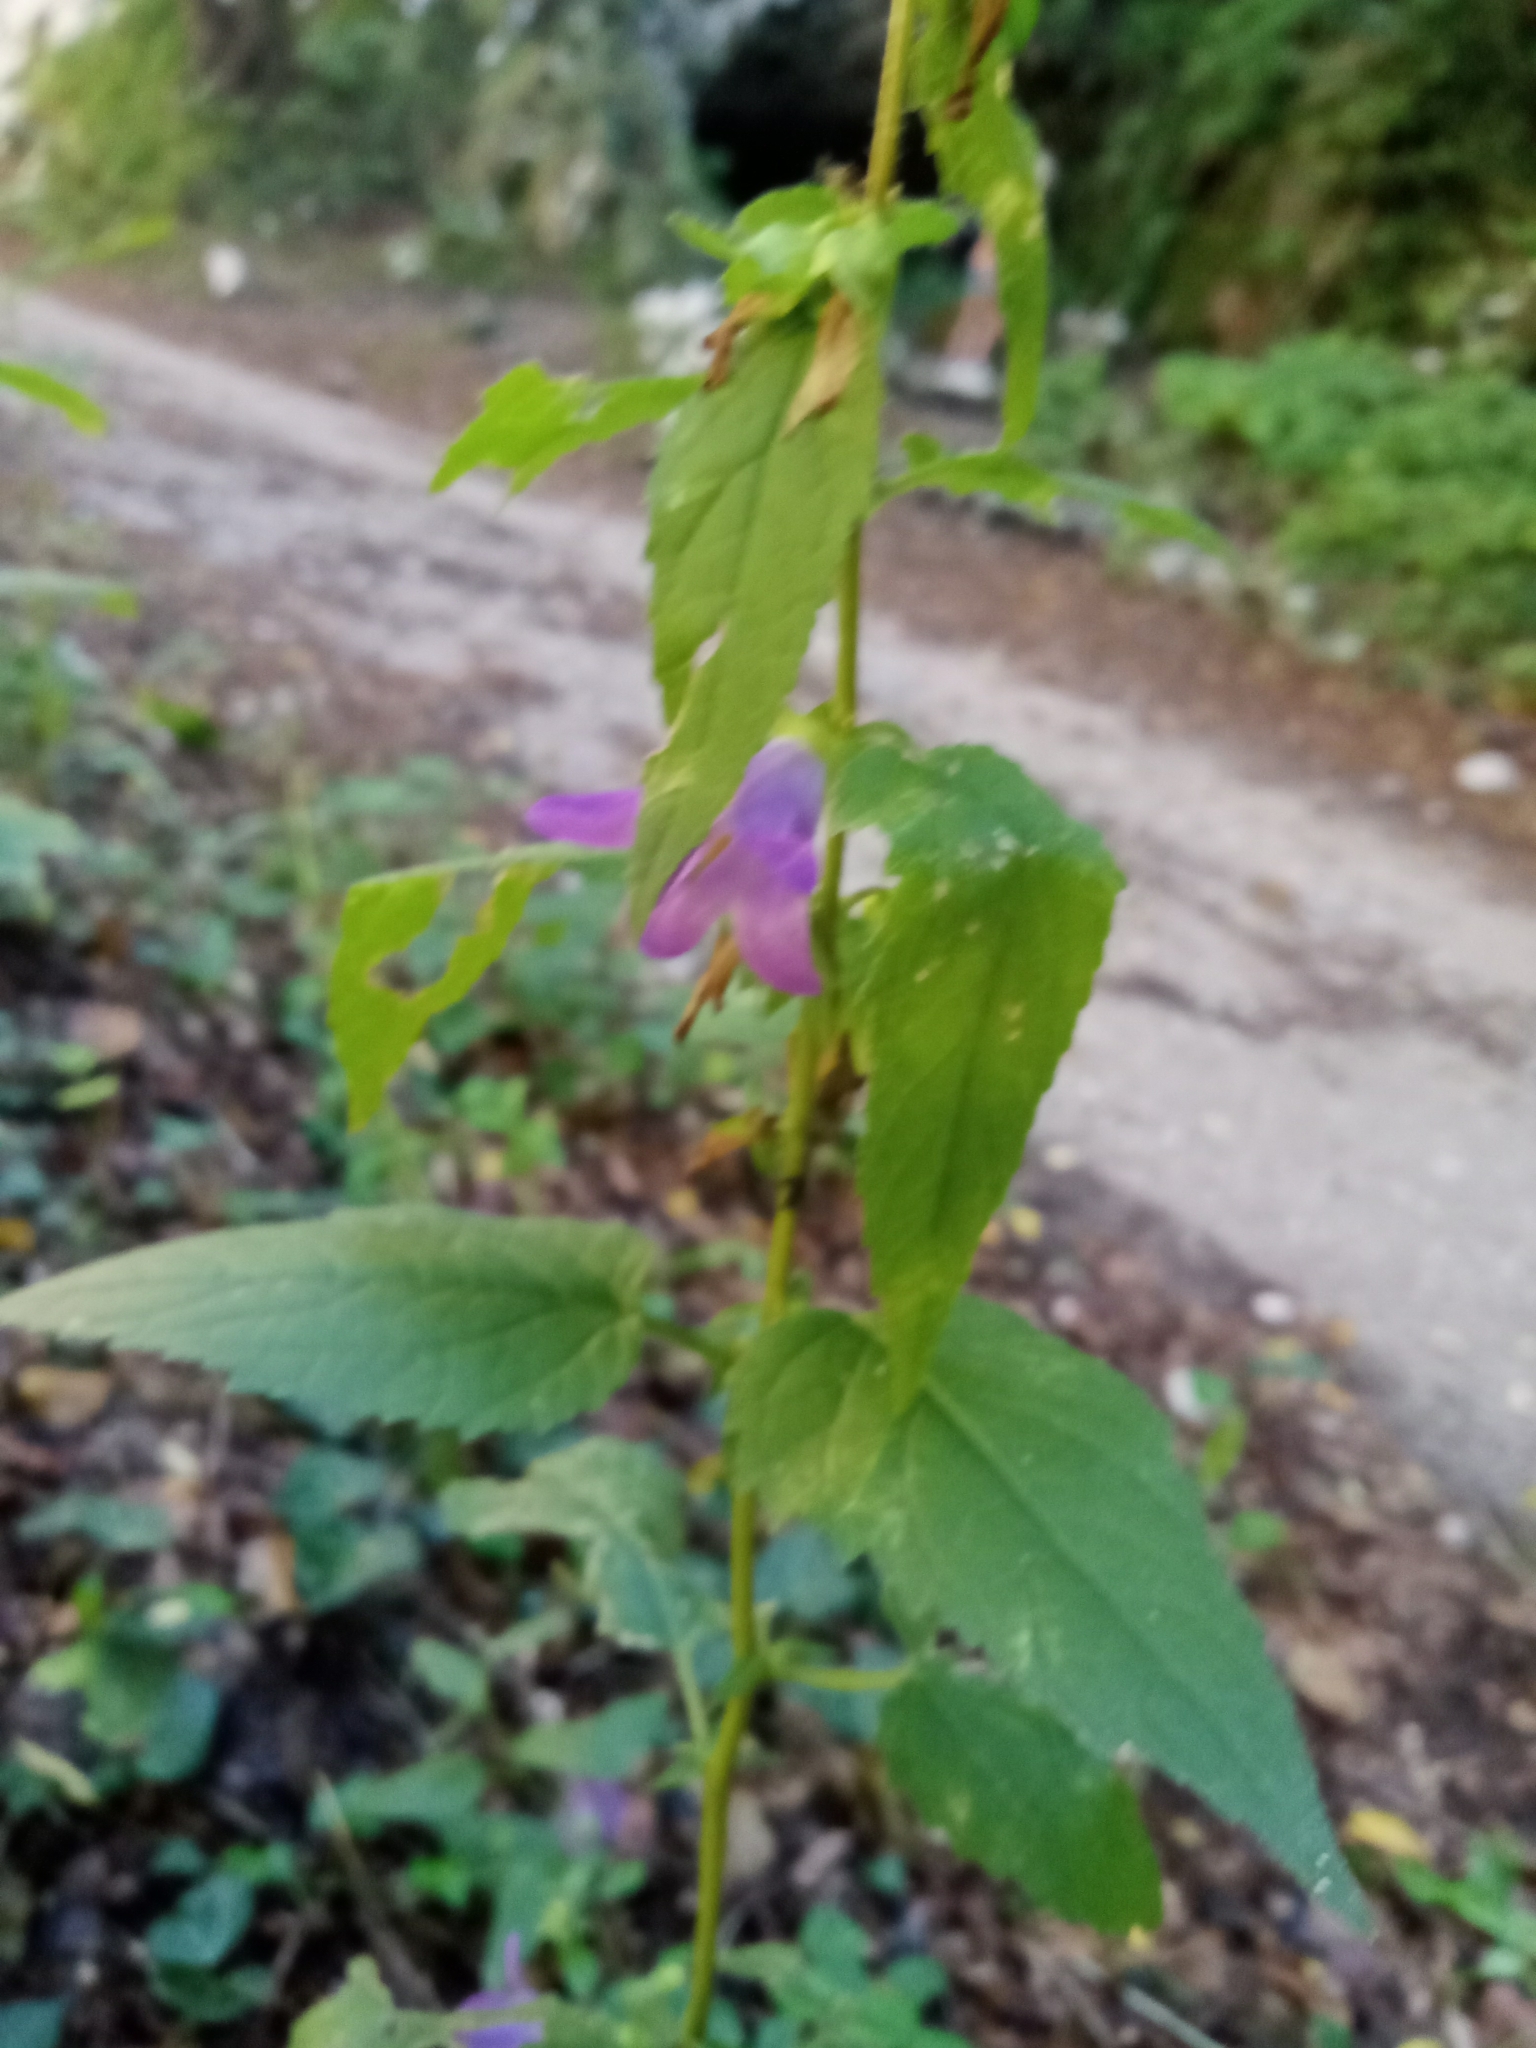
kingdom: Plantae
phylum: Tracheophyta
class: Magnoliopsida
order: Asterales
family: Campanulaceae
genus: Campanula
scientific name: Campanula trachelium
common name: Nettle-leaved bellflower
